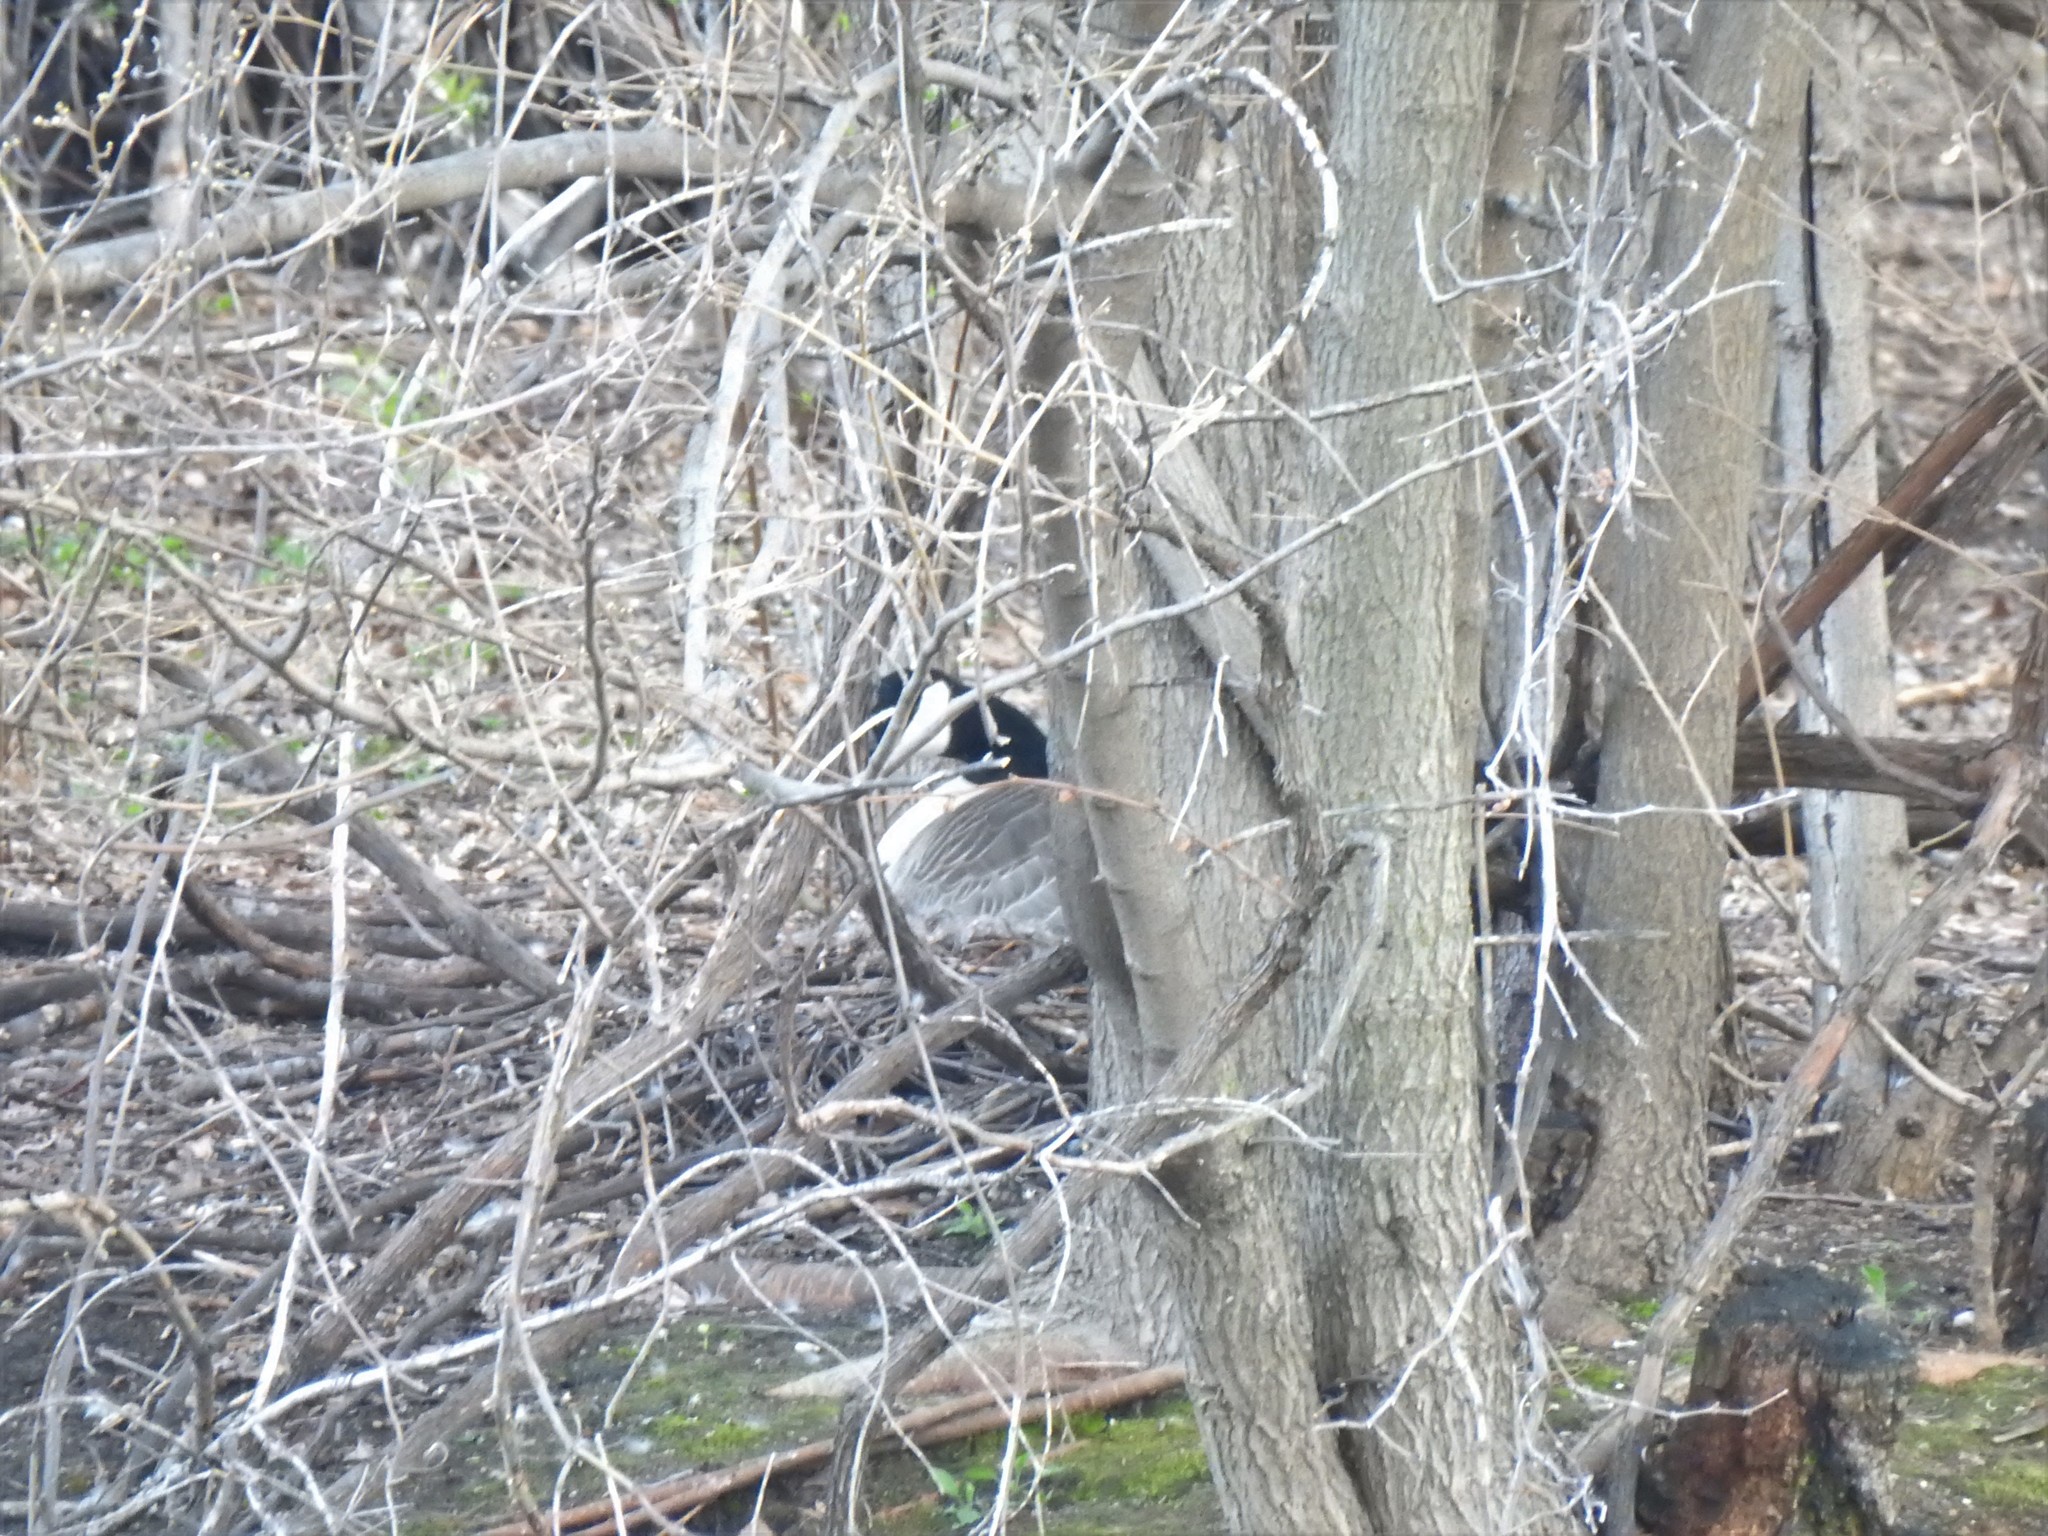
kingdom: Animalia
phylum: Chordata
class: Aves
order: Anseriformes
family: Anatidae
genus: Branta
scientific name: Branta canadensis
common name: Canada goose
